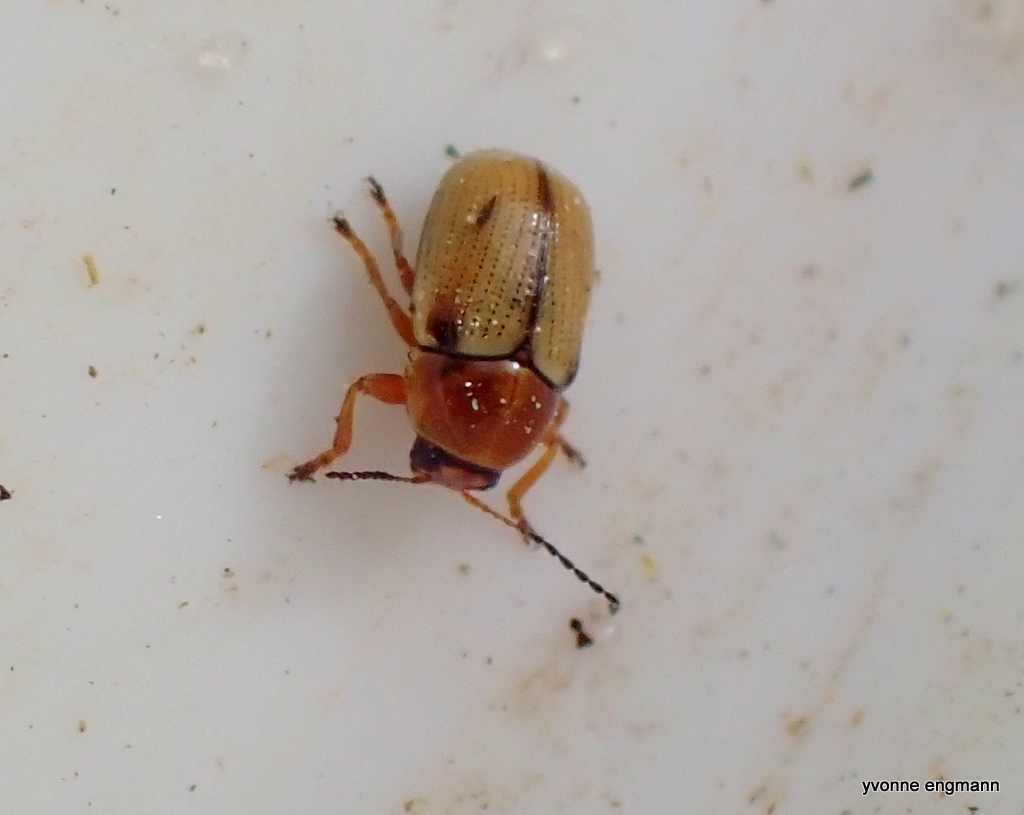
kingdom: Animalia
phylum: Arthropoda
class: Insecta
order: Coleoptera
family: Chrysomelidae
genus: Cryptocephalus
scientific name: Cryptocephalus fulvus
